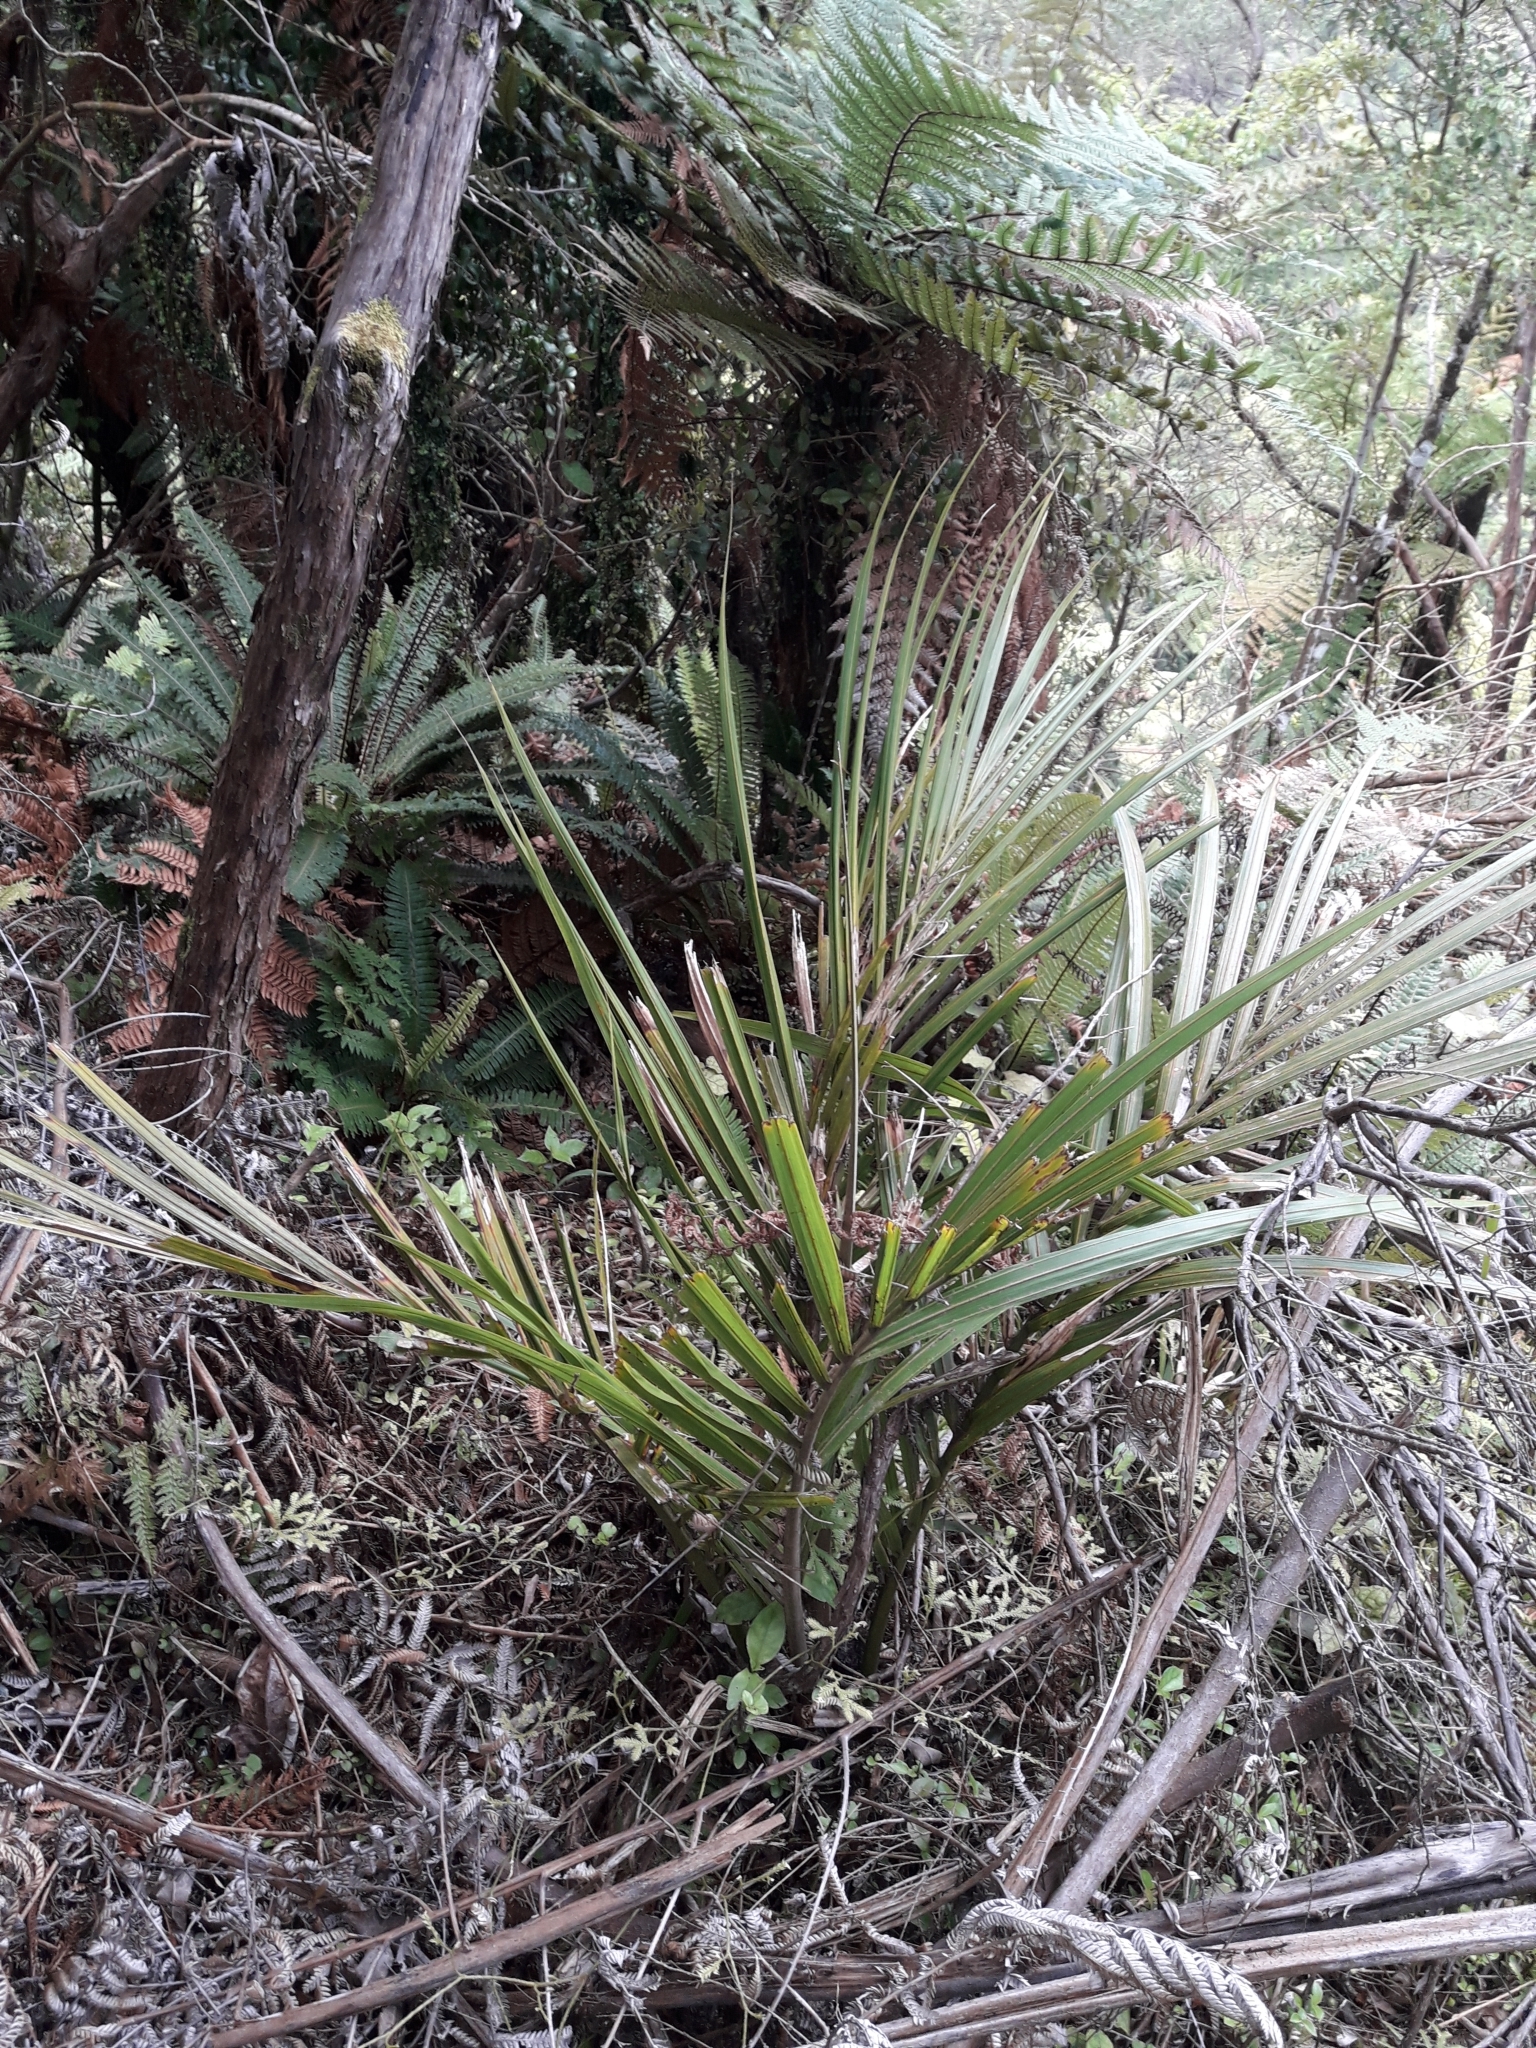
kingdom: Plantae
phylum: Tracheophyta
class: Liliopsida
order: Arecales
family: Arecaceae
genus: Rhopalostylis
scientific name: Rhopalostylis sapida
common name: Feather-duster palm
